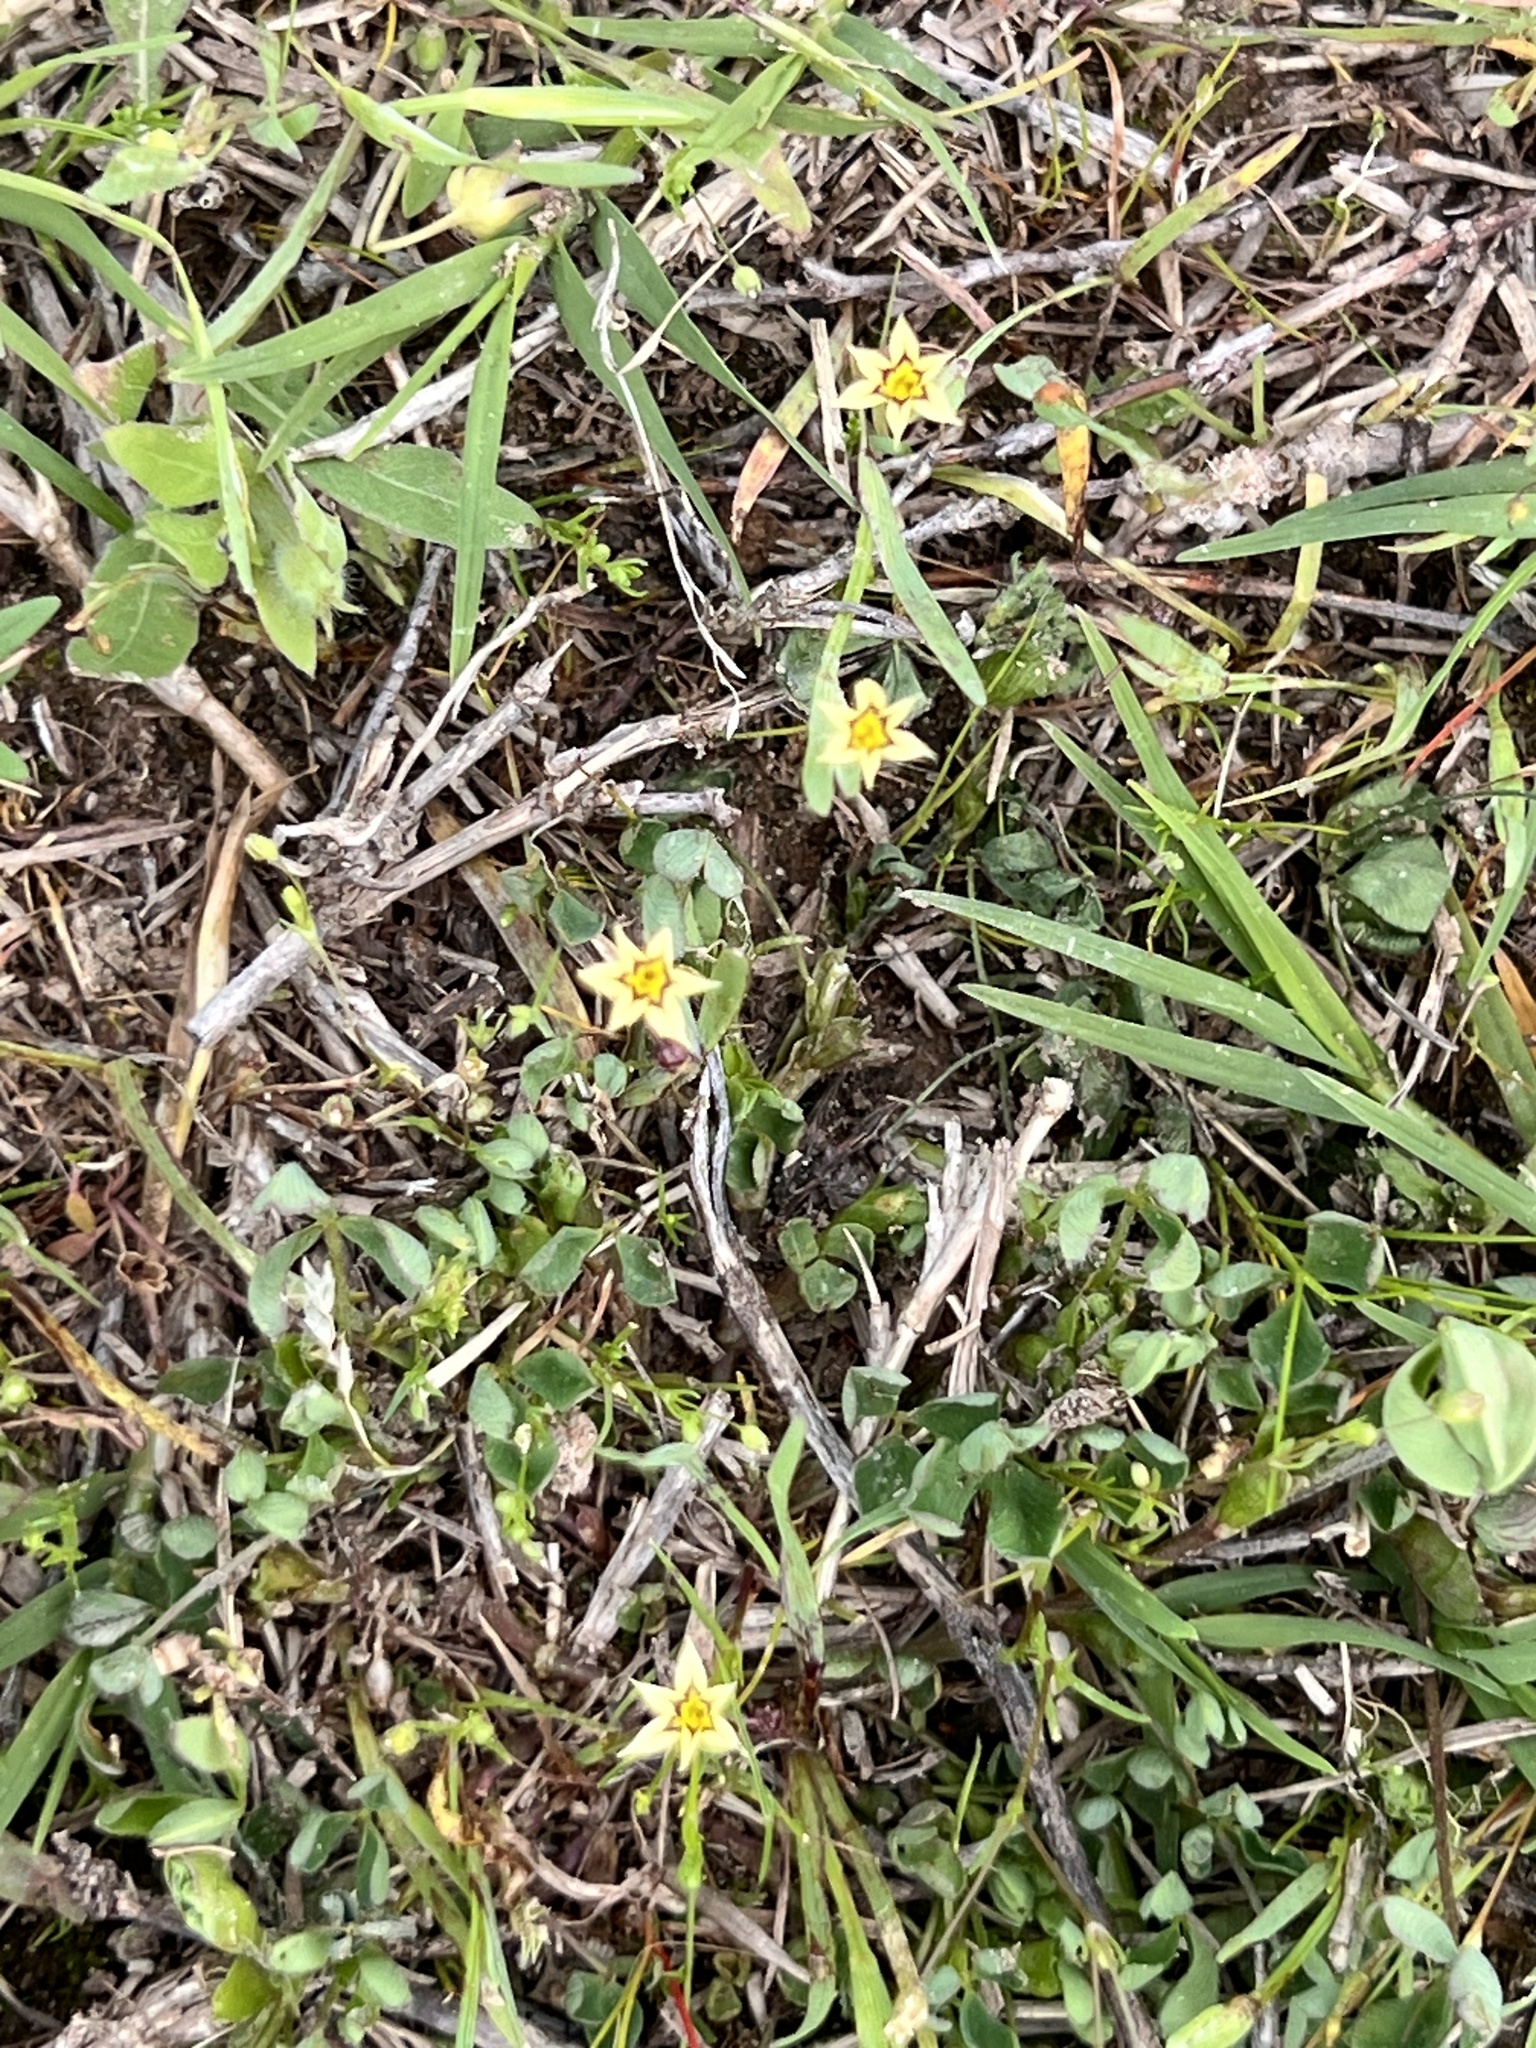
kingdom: Plantae
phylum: Tracheophyta
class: Liliopsida
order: Asparagales
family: Iridaceae
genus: Sisyrinchium
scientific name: Sisyrinchium micranthum
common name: Bermuda pigroot
